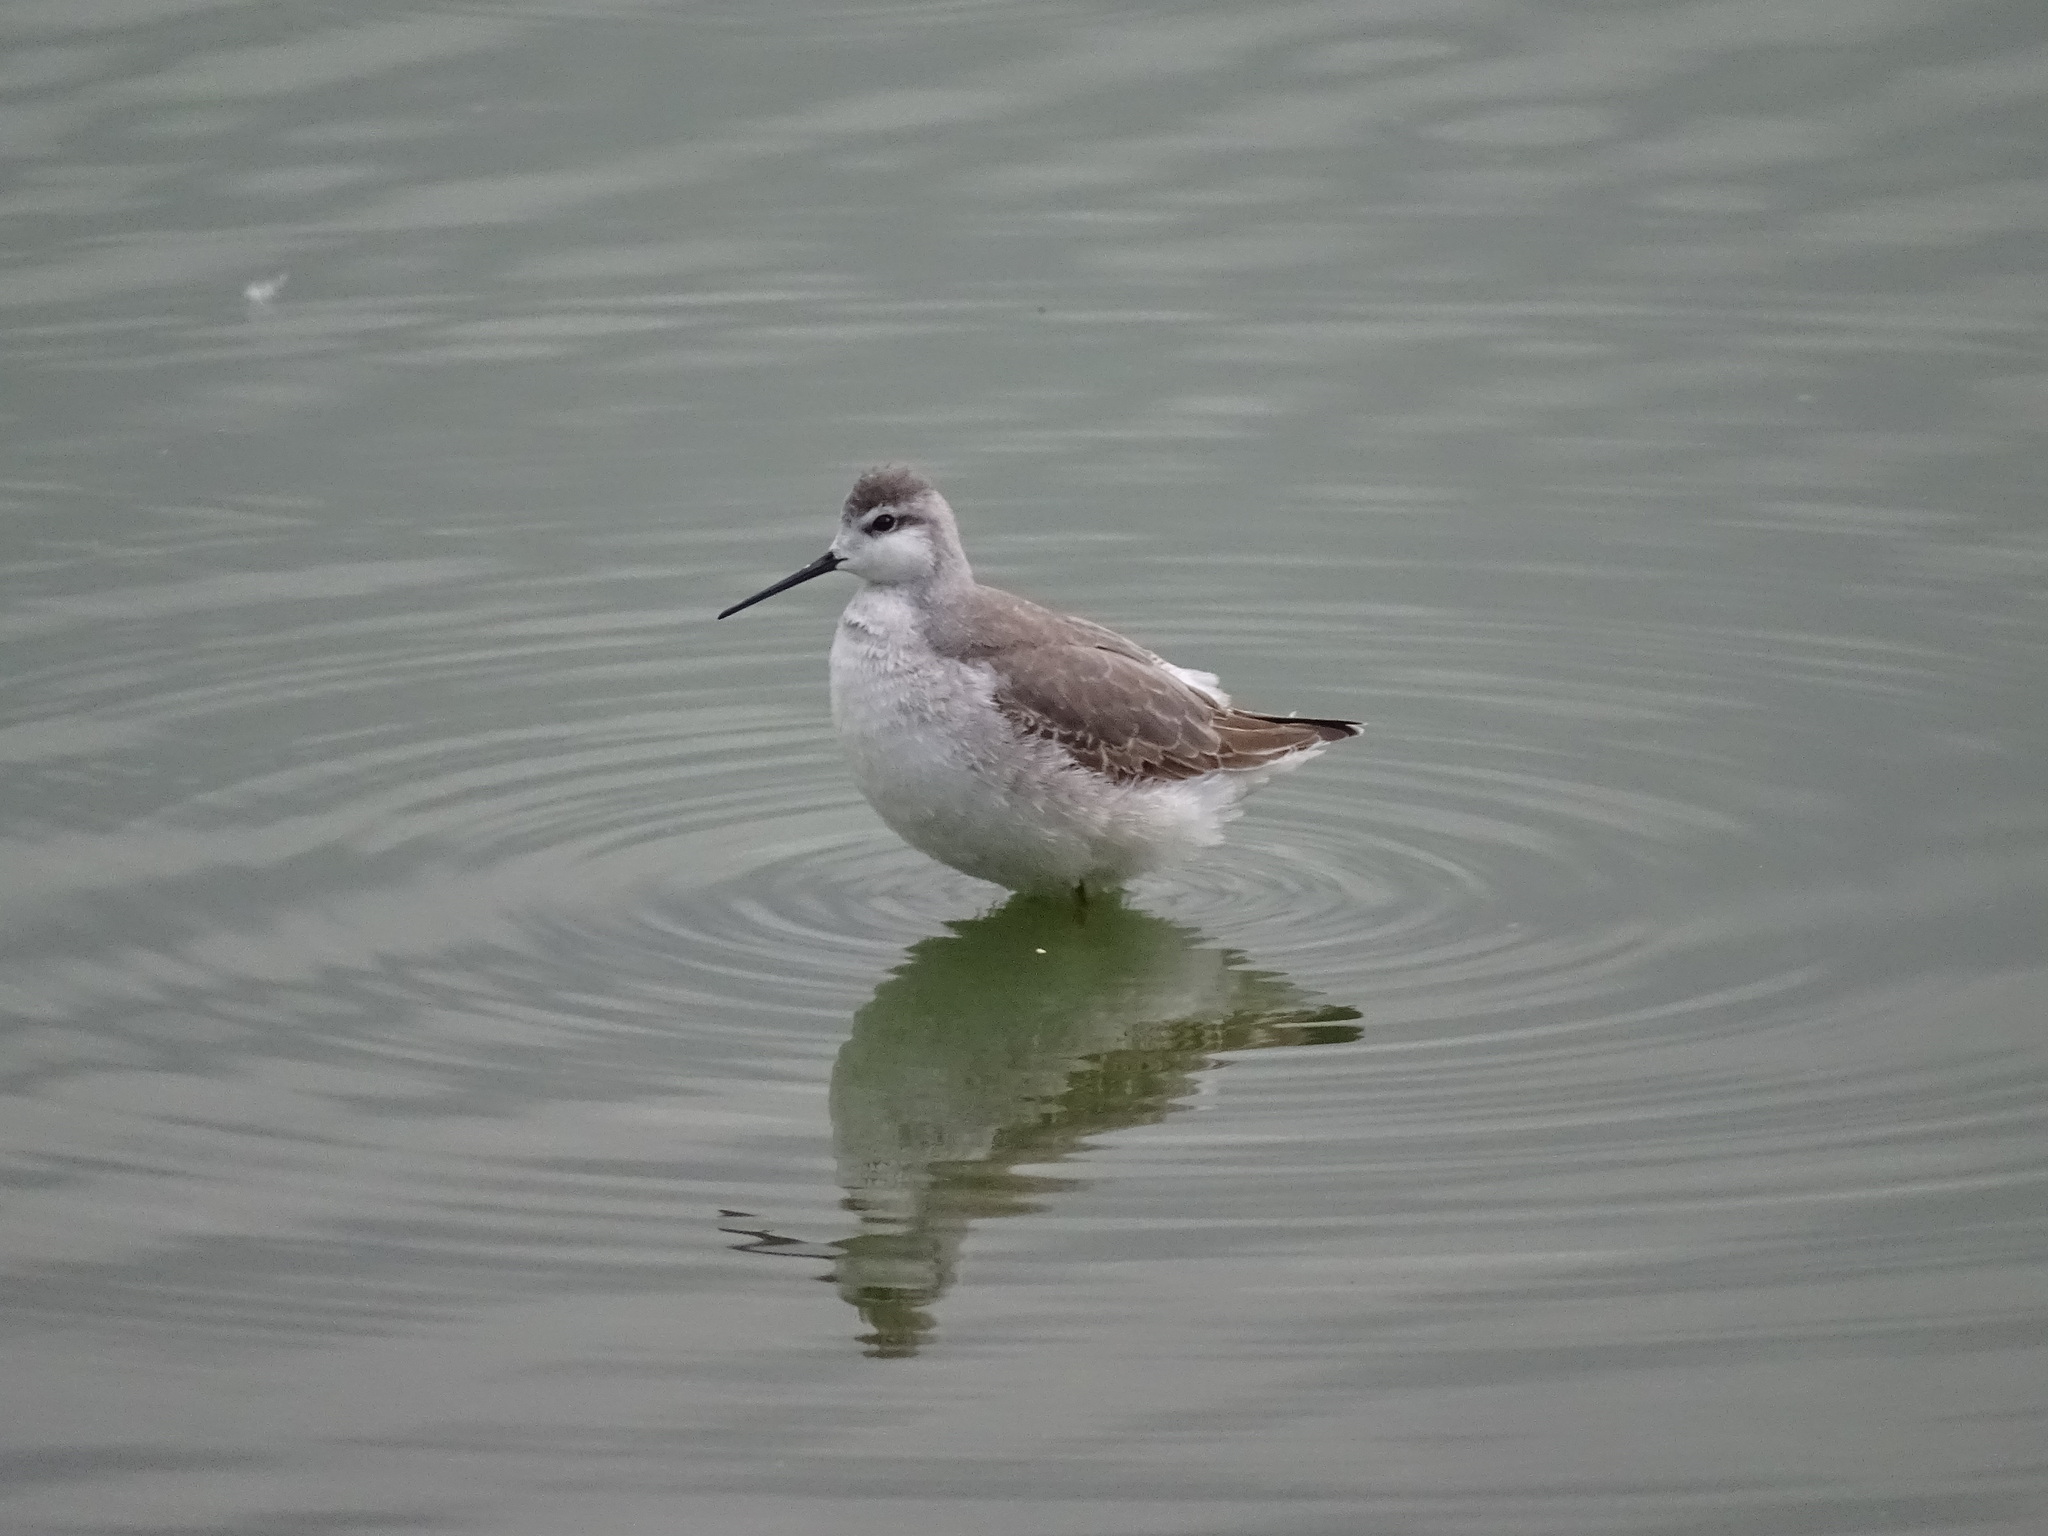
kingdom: Animalia
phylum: Chordata
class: Aves
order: Charadriiformes
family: Scolopacidae
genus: Phalaropus
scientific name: Phalaropus tricolor
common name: Wilson's phalarope
